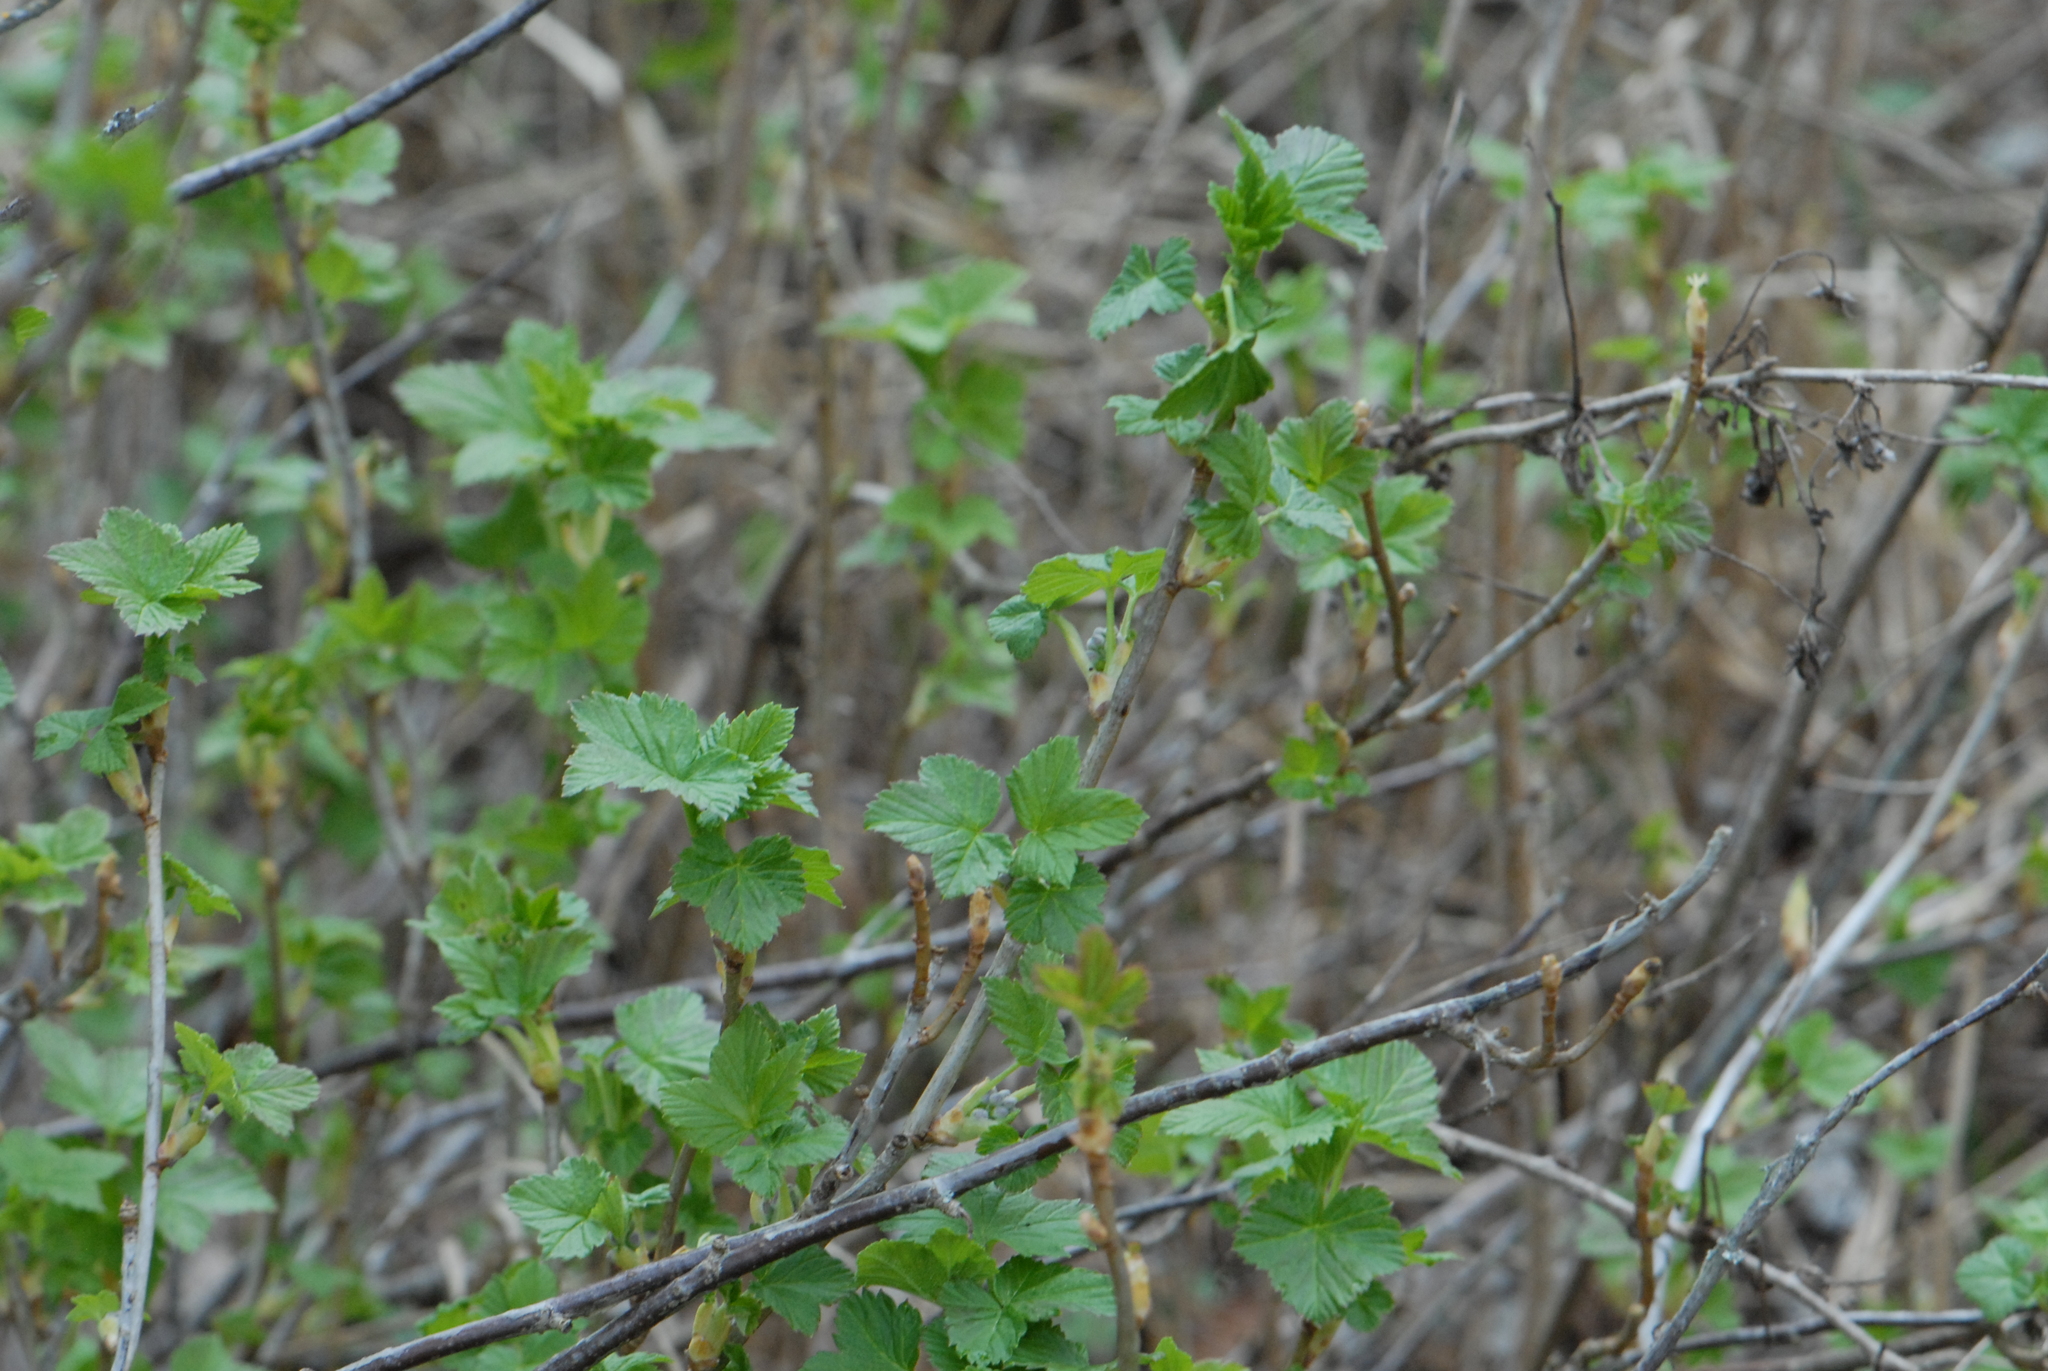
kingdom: Plantae
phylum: Tracheophyta
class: Magnoliopsida
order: Saxifragales
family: Grossulariaceae
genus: Ribes
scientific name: Ribes nigrum
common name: Black currant
